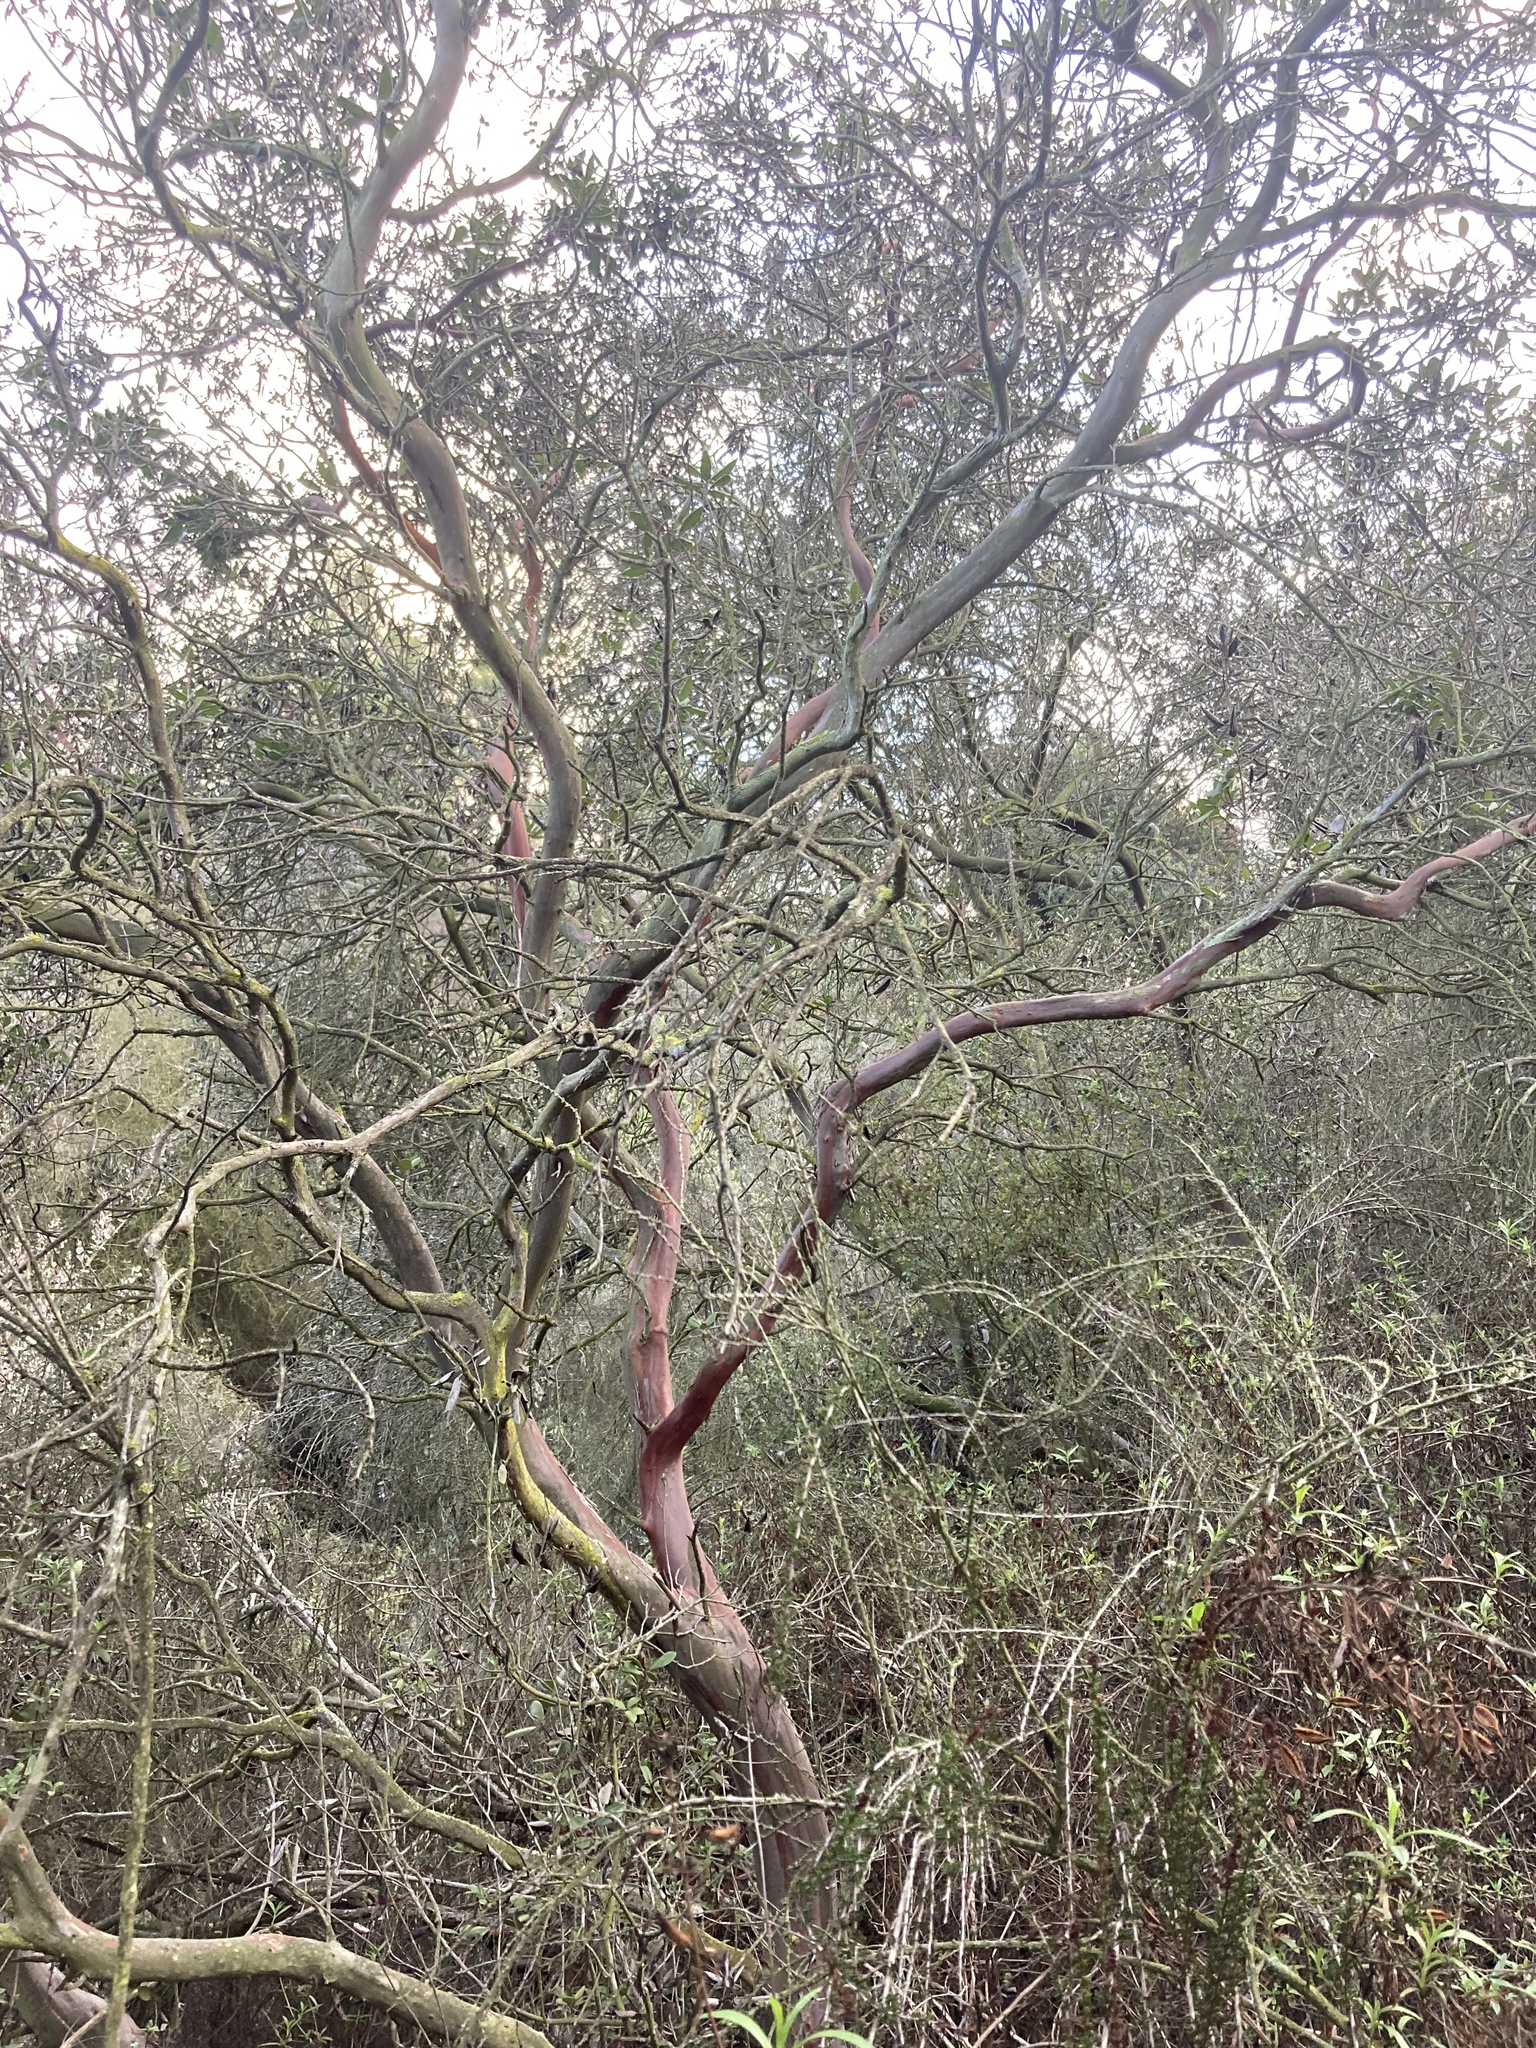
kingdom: Plantae
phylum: Tracheophyta
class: Magnoliopsida
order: Ericales
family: Ericaceae
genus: Arctostaphylos
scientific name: Arctostaphylos bicolor
